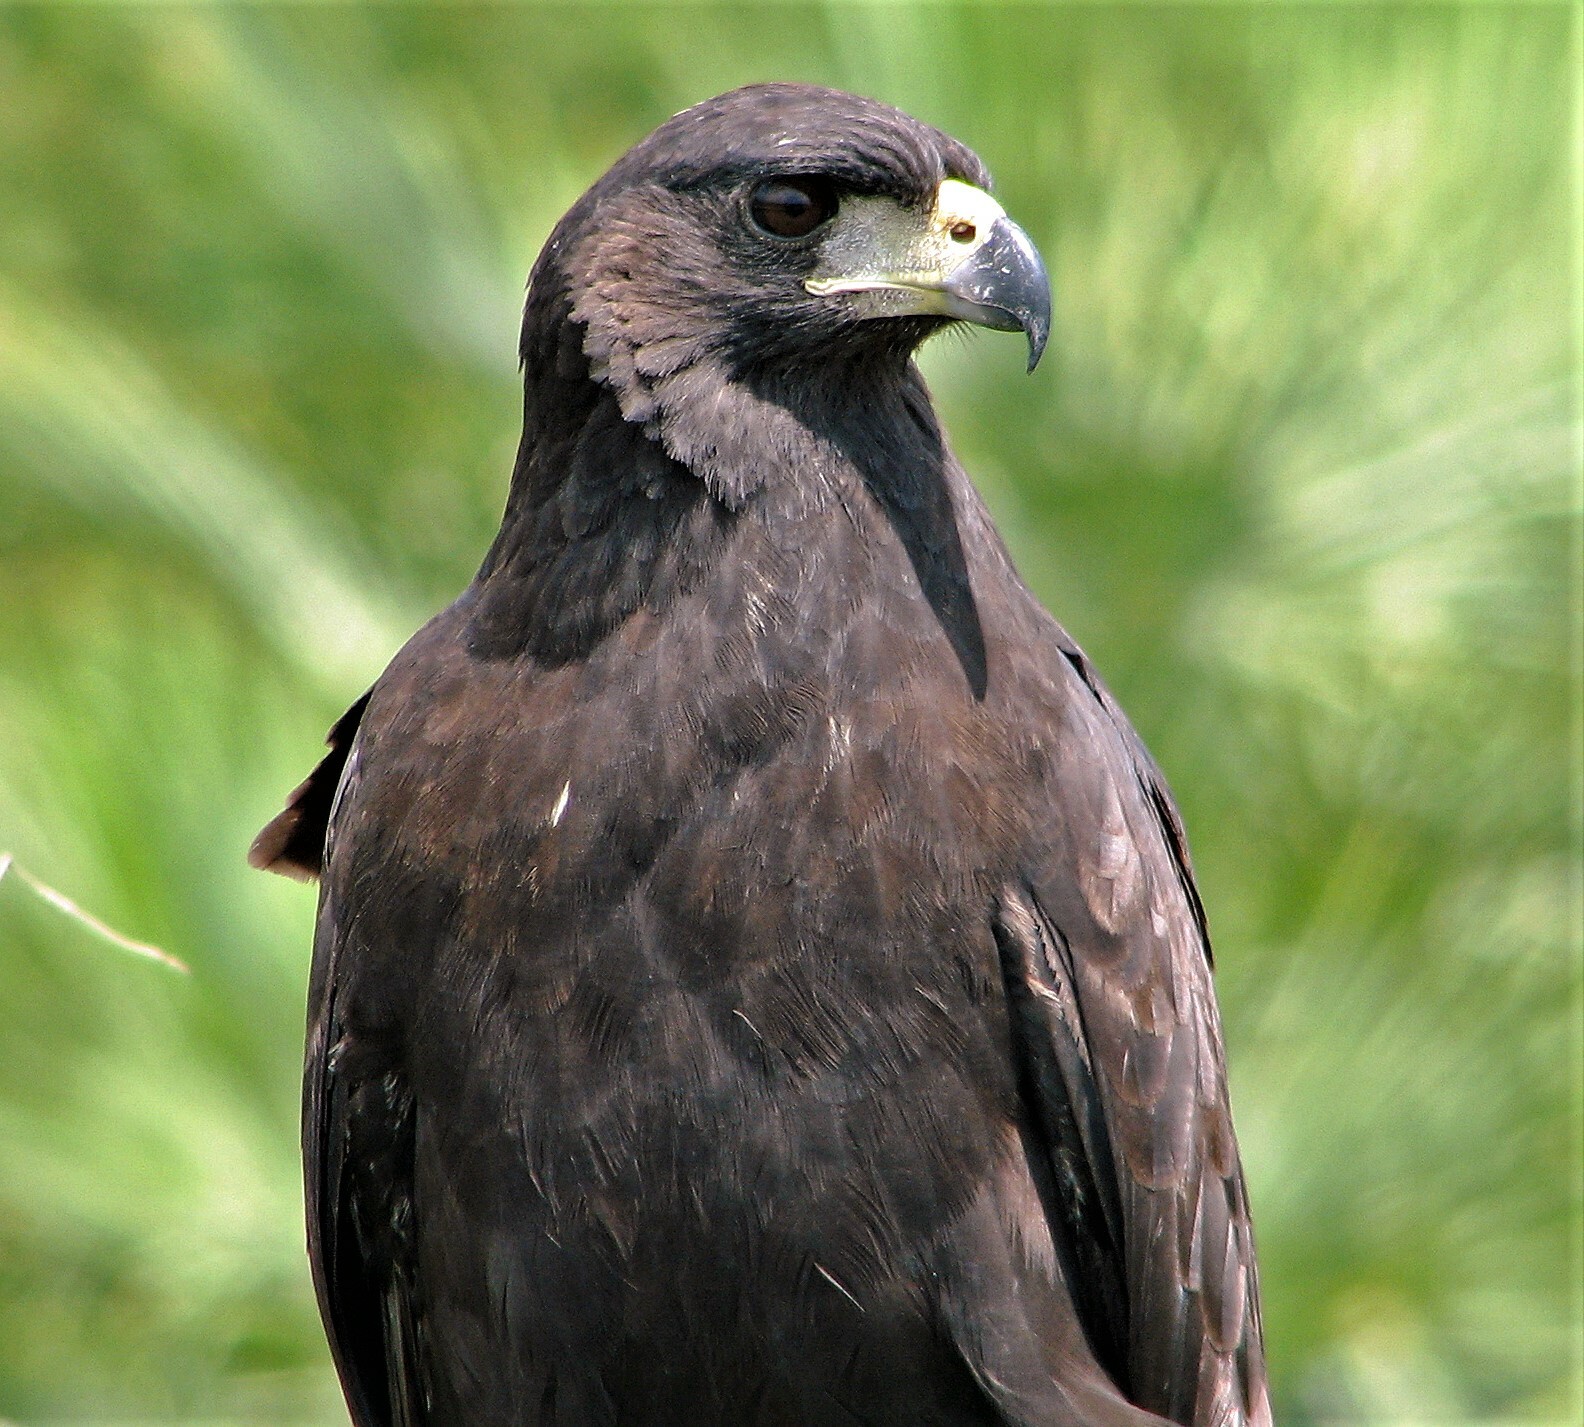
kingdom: Animalia
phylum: Chordata
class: Aves
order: Accipitriformes
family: Accipitridae
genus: Buteogallus
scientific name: Buteogallus urubitinga
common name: Great black hawk
